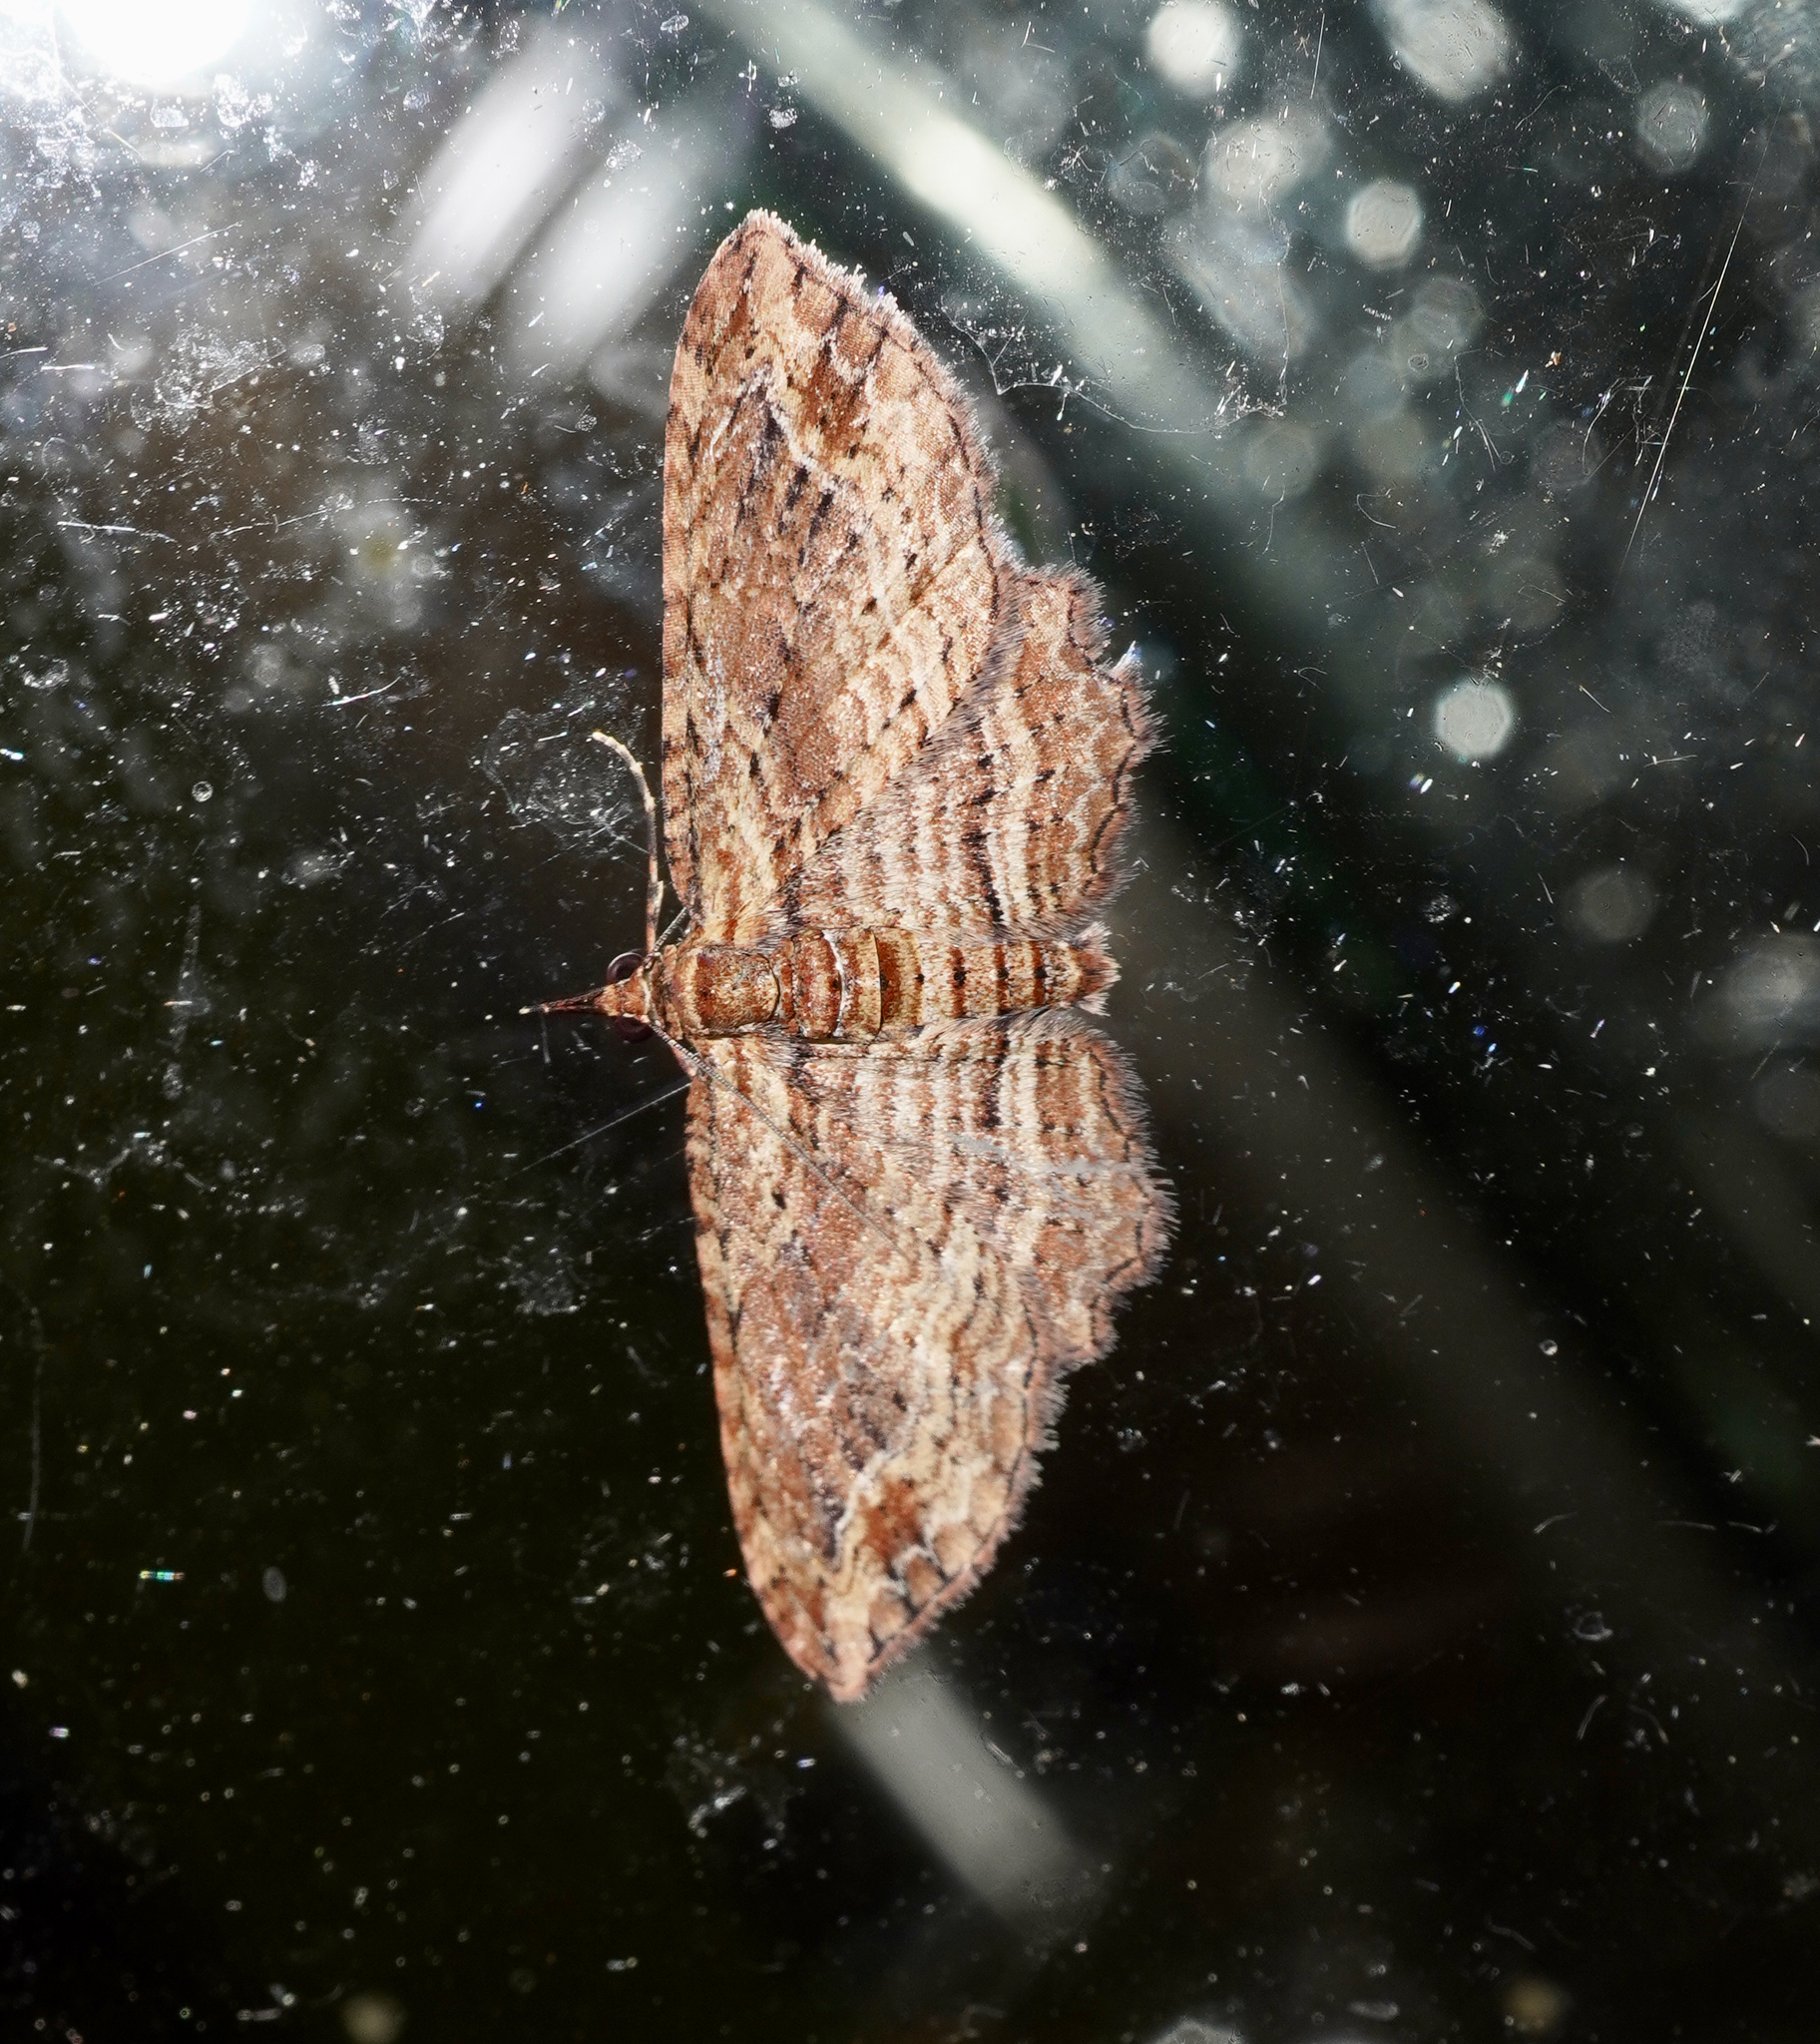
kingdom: Animalia
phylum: Arthropoda
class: Insecta
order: Lepidoptera
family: Geometridae
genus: Chloroclystis
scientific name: Chloroclystis filata
